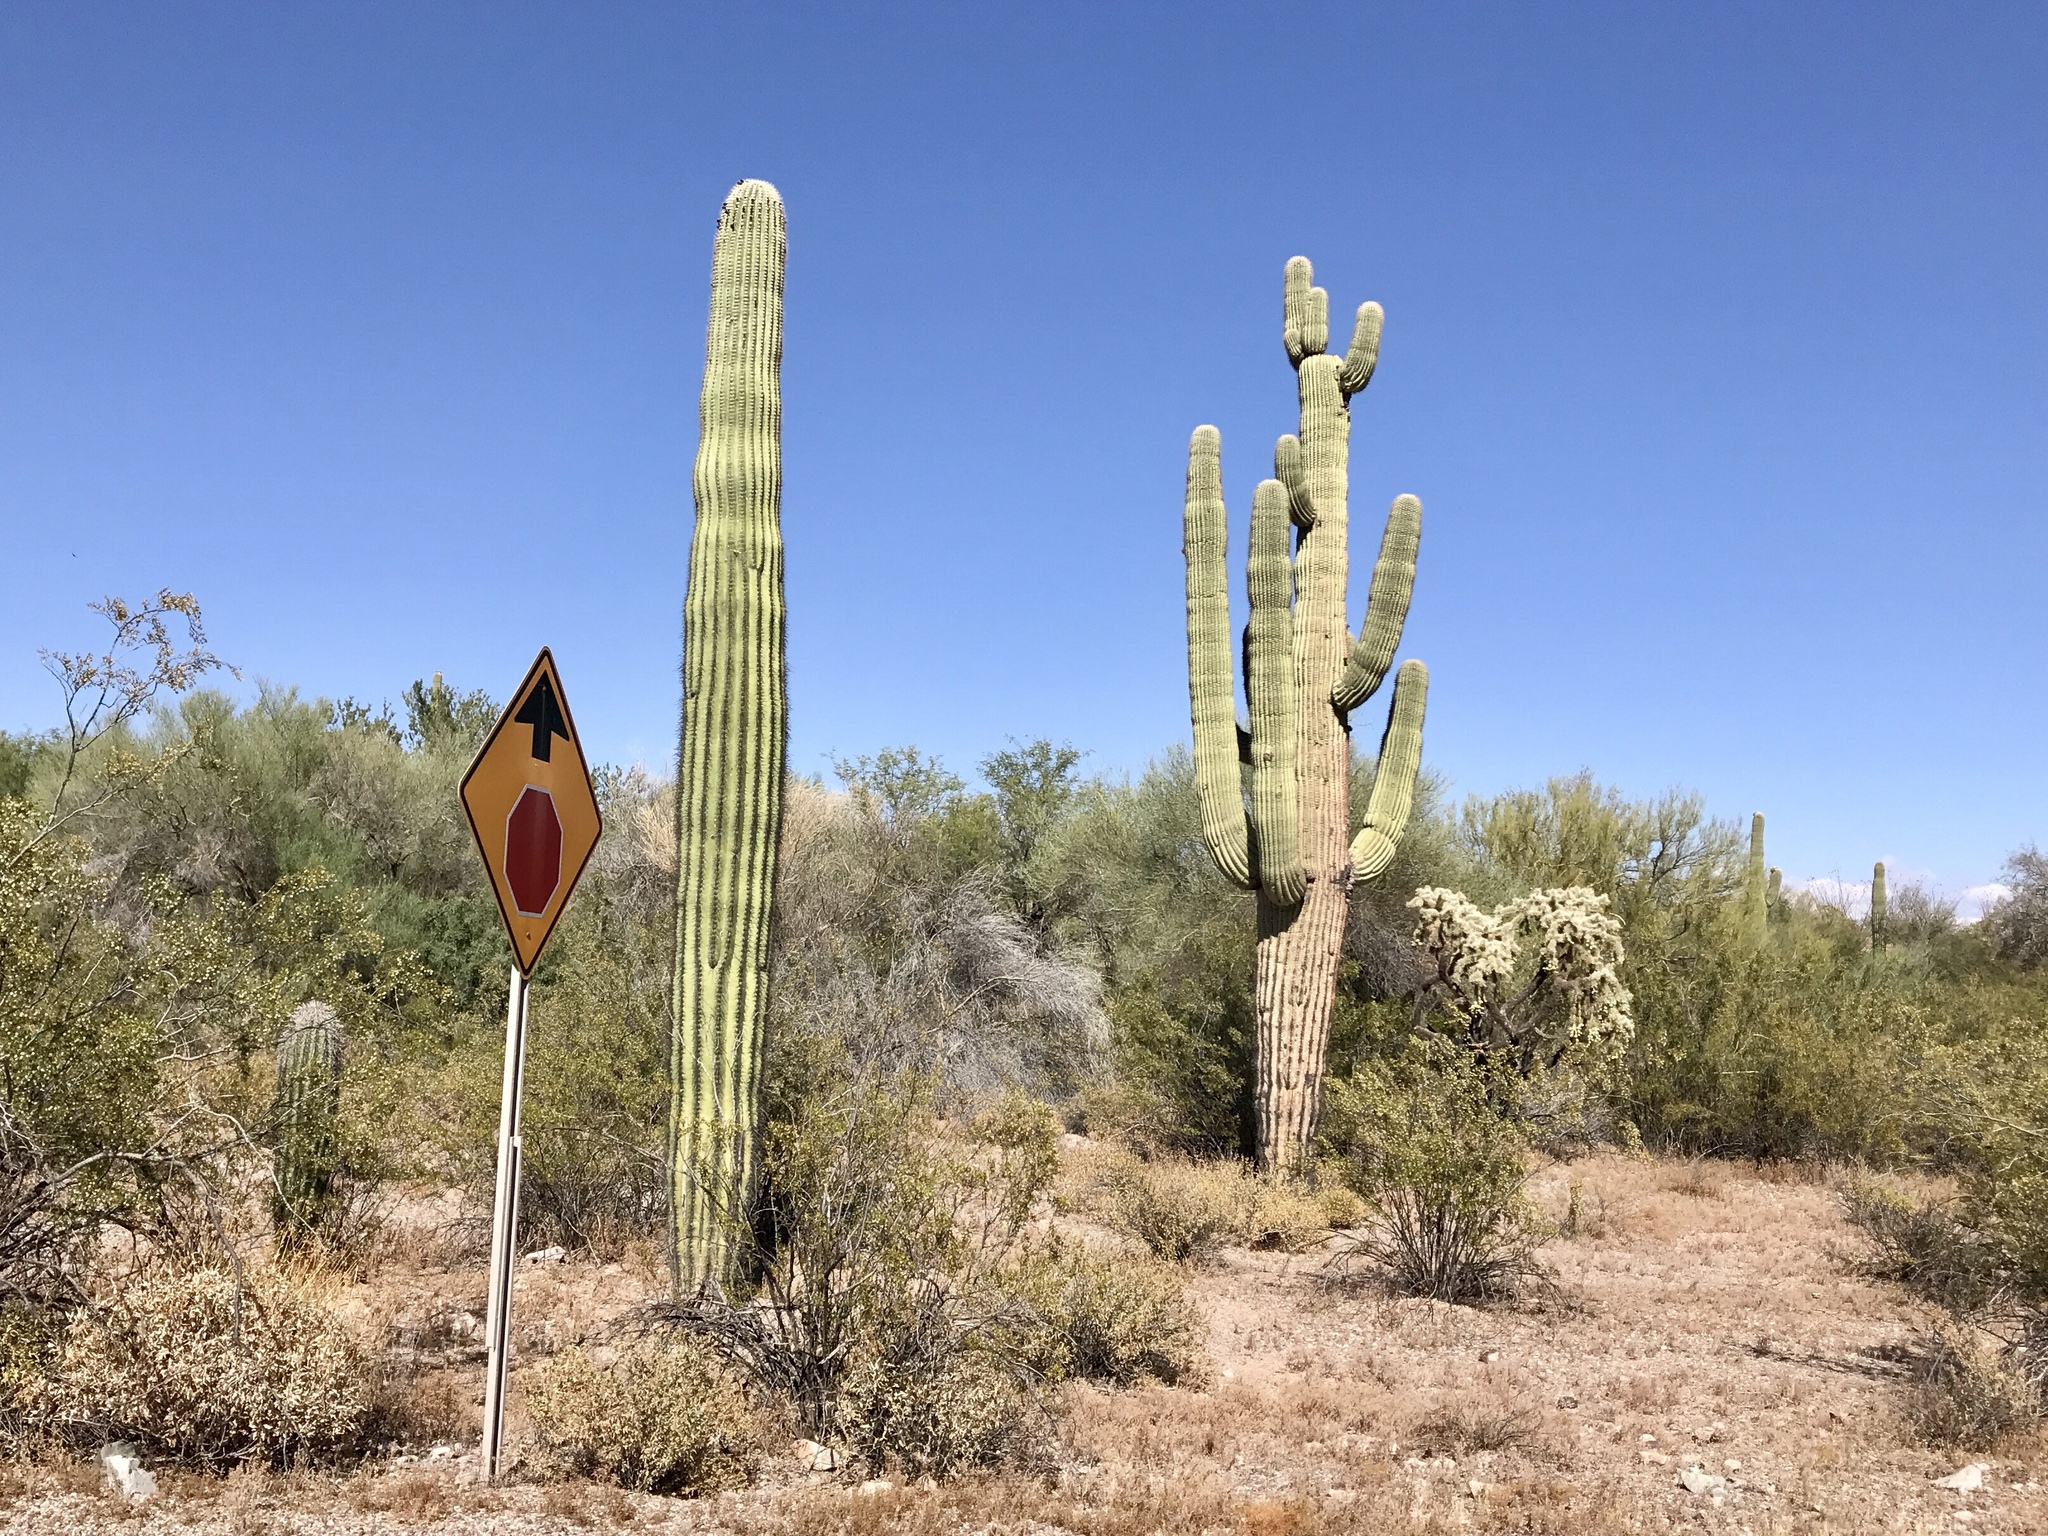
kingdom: Plantae
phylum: Tracheophyta
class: Magnoliopsida
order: Caryophyllales
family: Cactaceae
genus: Carnegiea
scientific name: Carnegiea gigantea
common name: Saguaro
